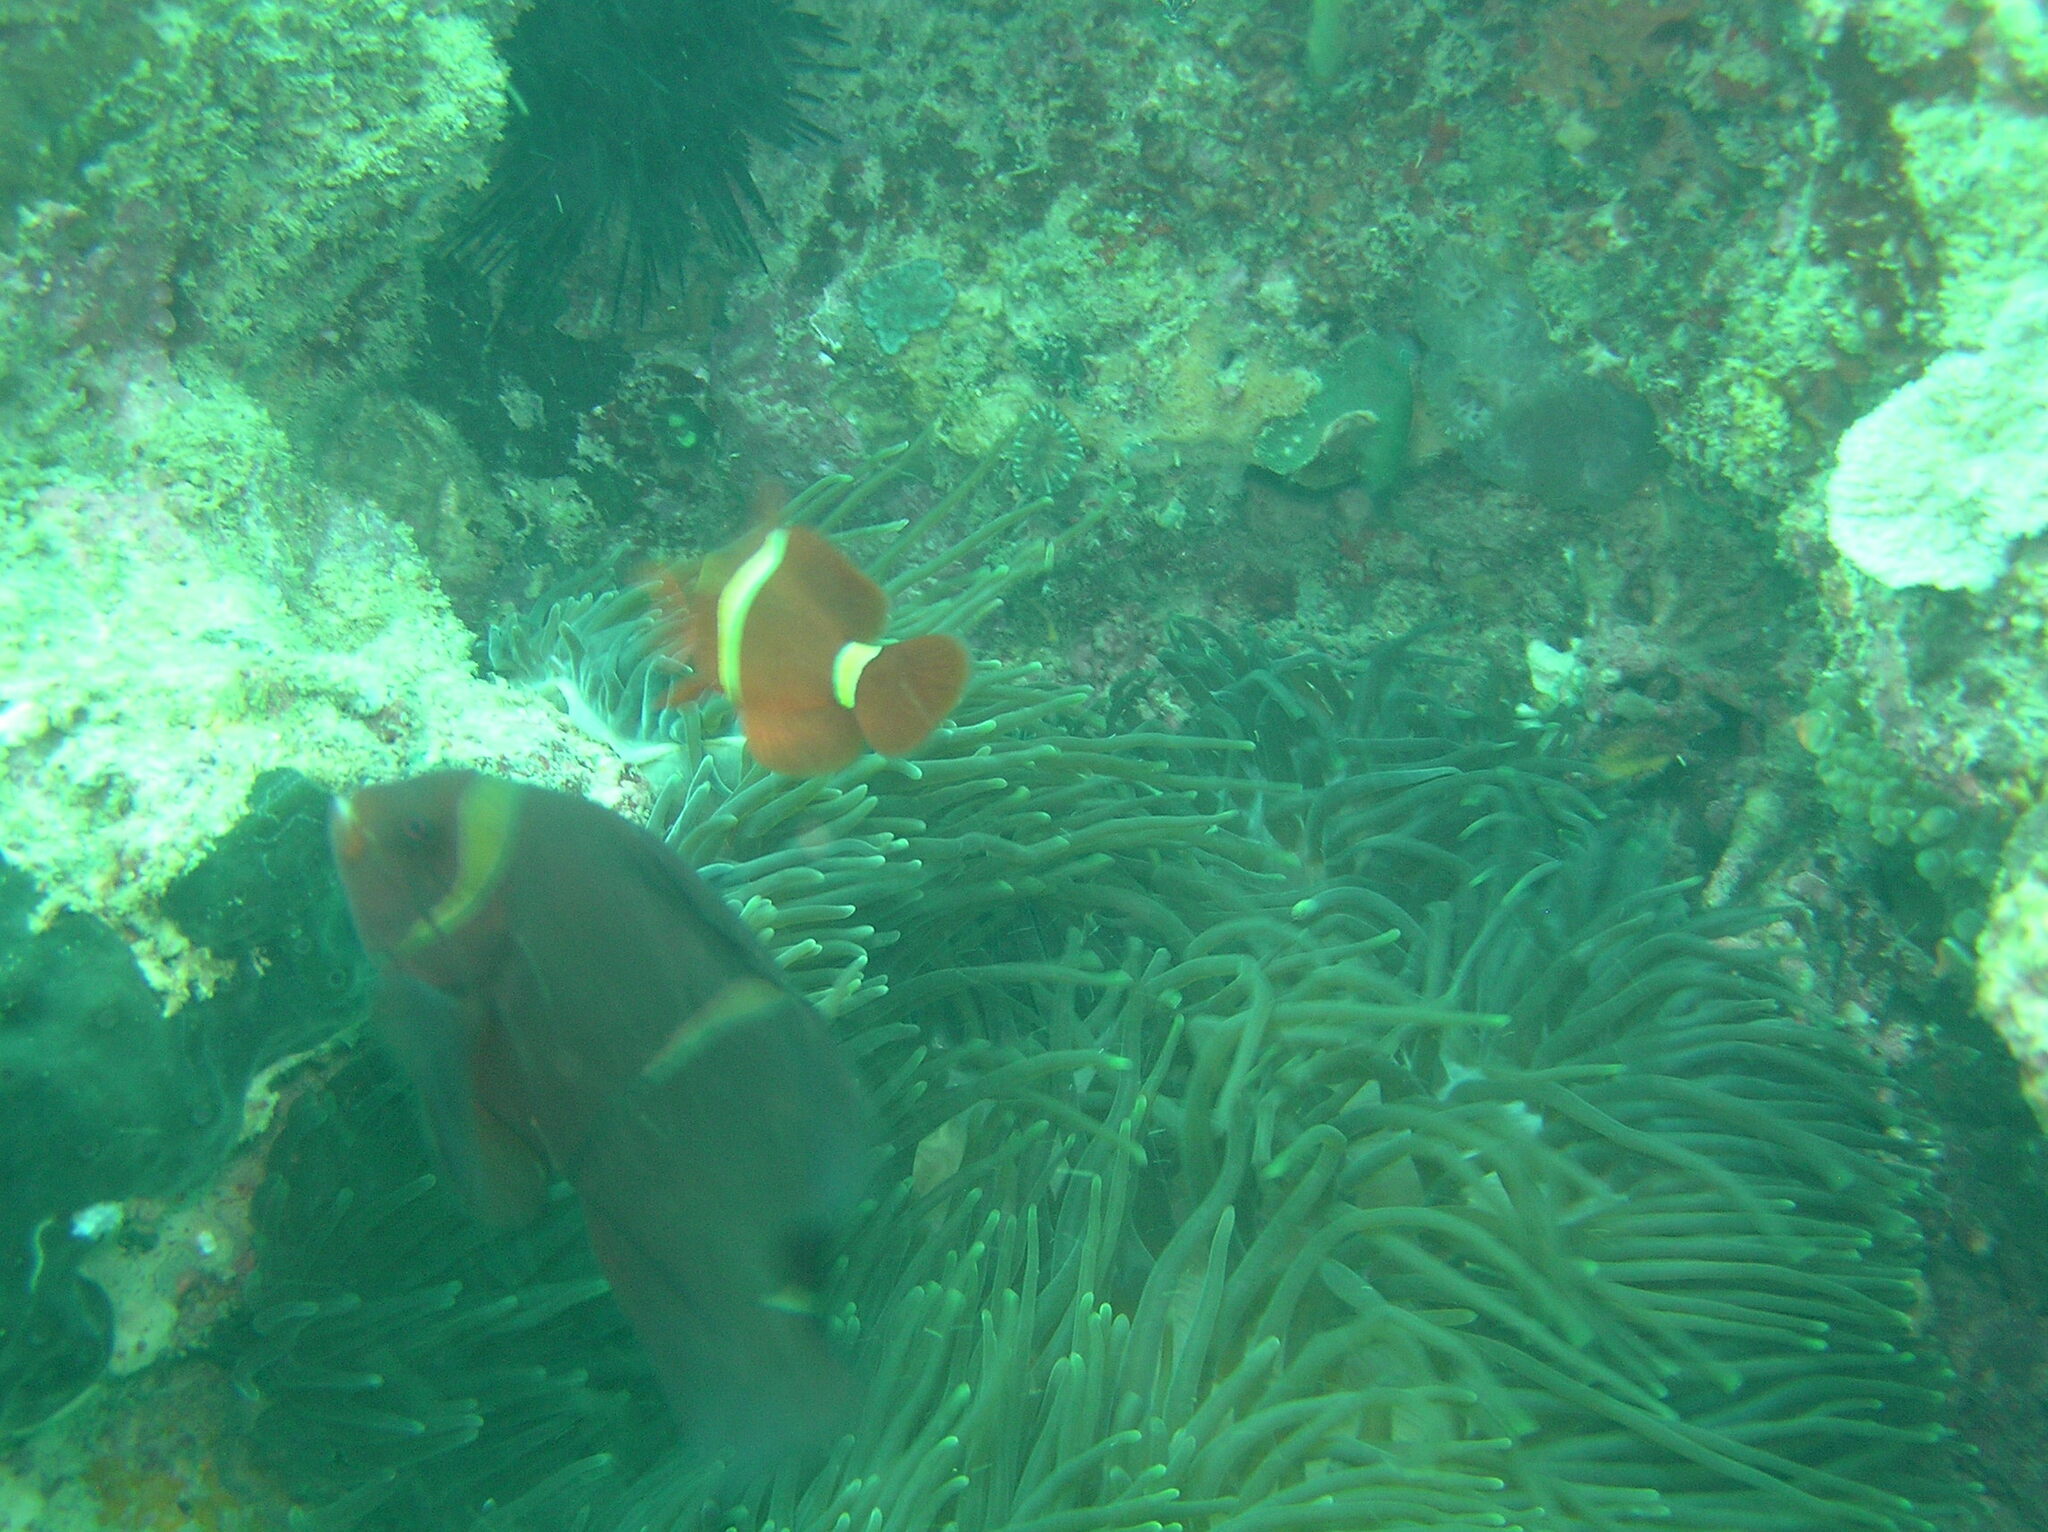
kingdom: Animalia
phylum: Chordata
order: Perciformes
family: Pomacentridae
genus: Premnas
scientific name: Premnas biaculeatus
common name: Spinecheek anemonefish
